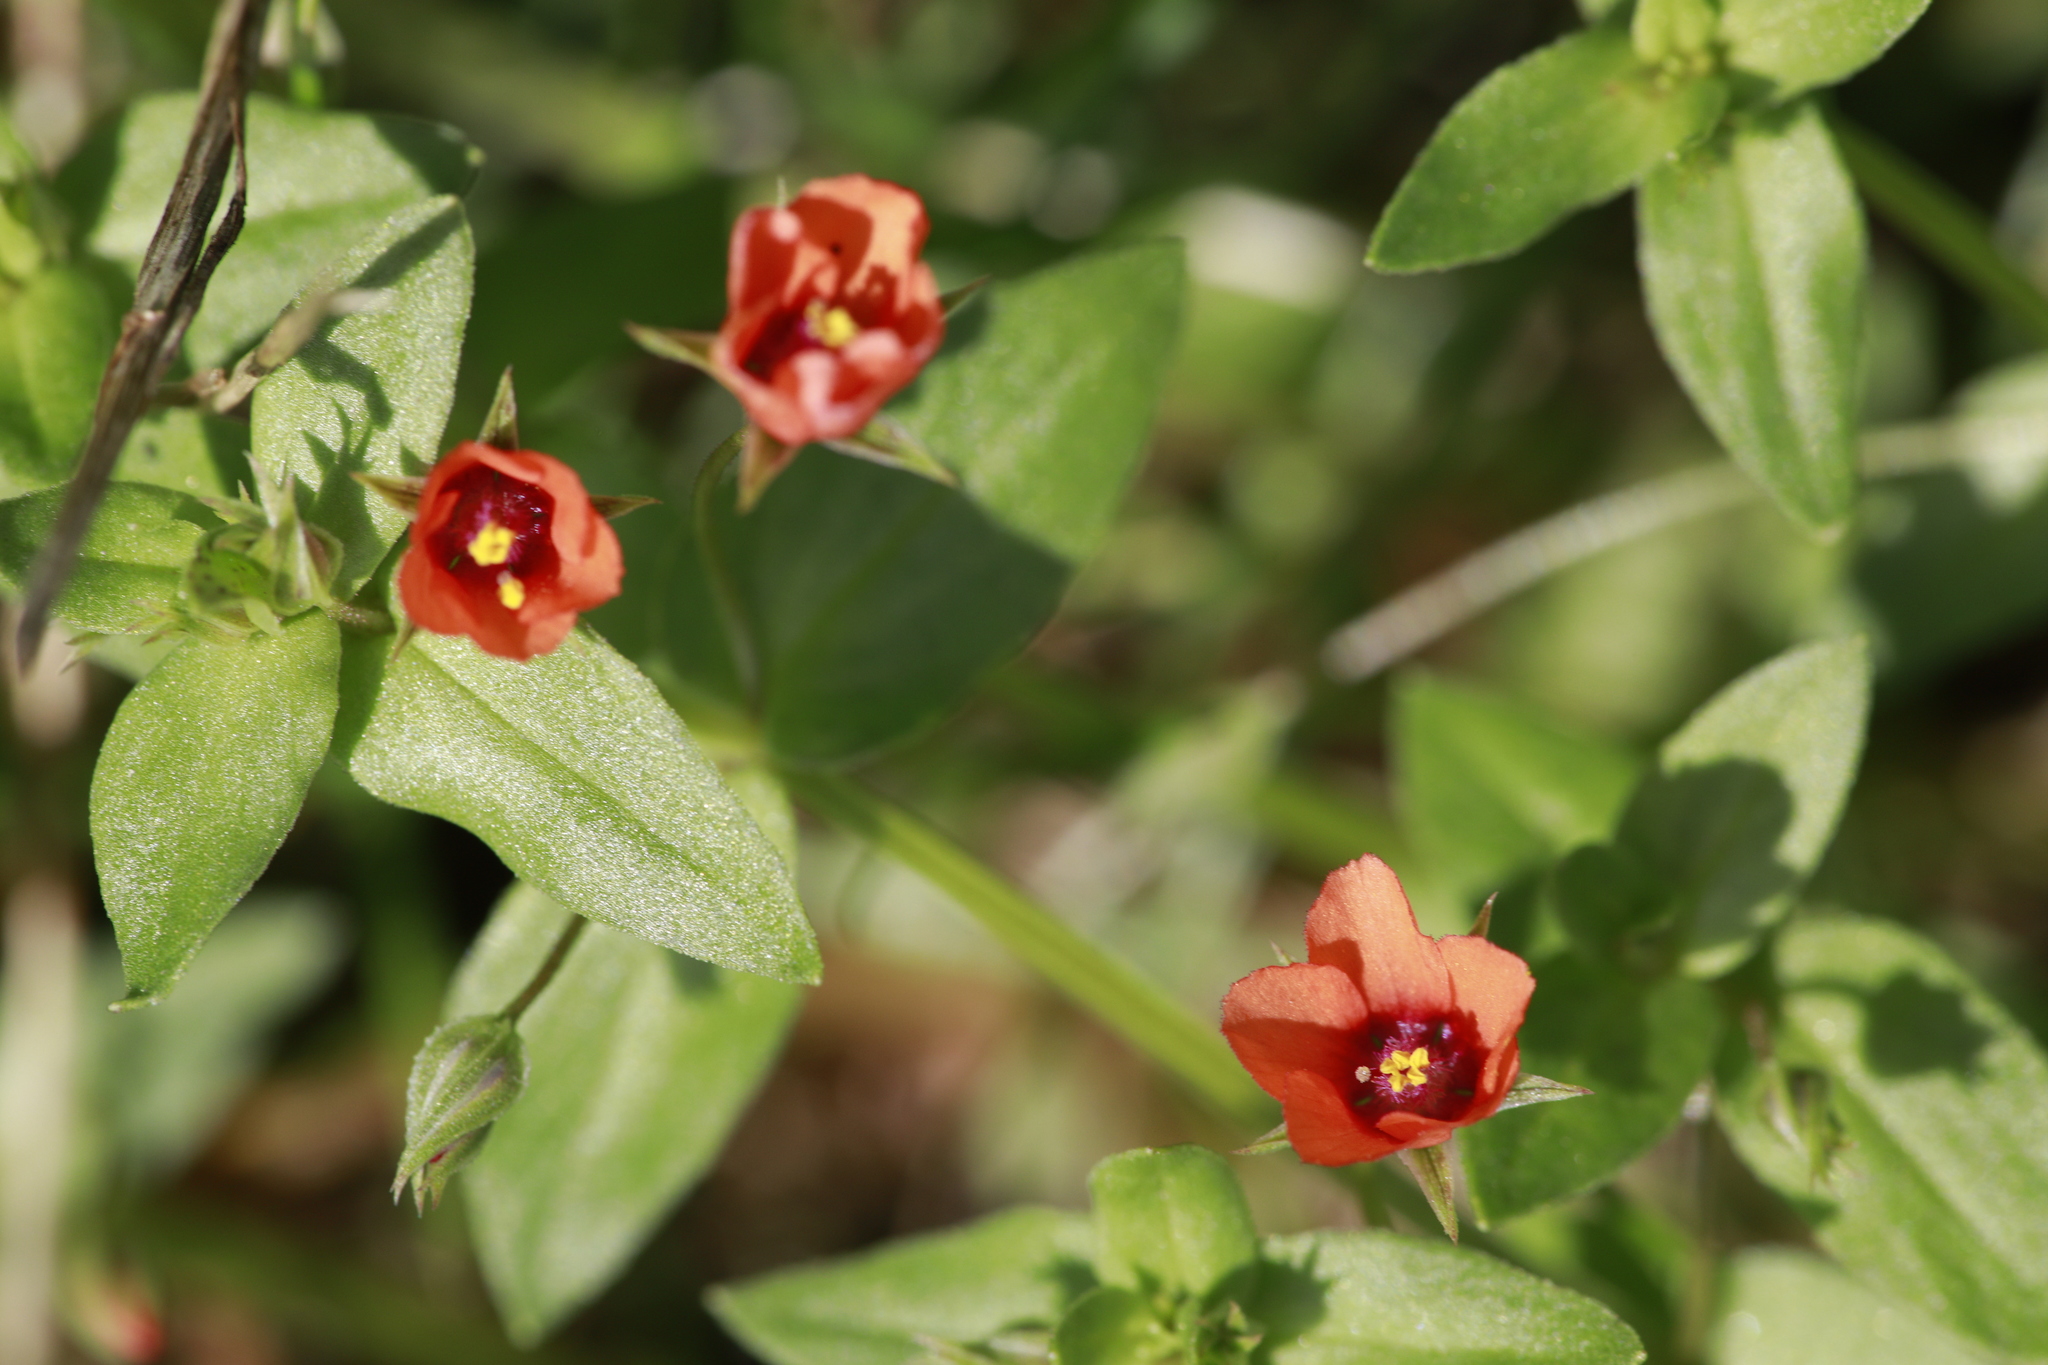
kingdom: Plantae
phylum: Tracheophyta
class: Magnoliopsida
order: Ericales
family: Primulaceae
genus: Lysimachia
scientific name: Lysimachia arvensis
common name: Scarlet pimpernel
